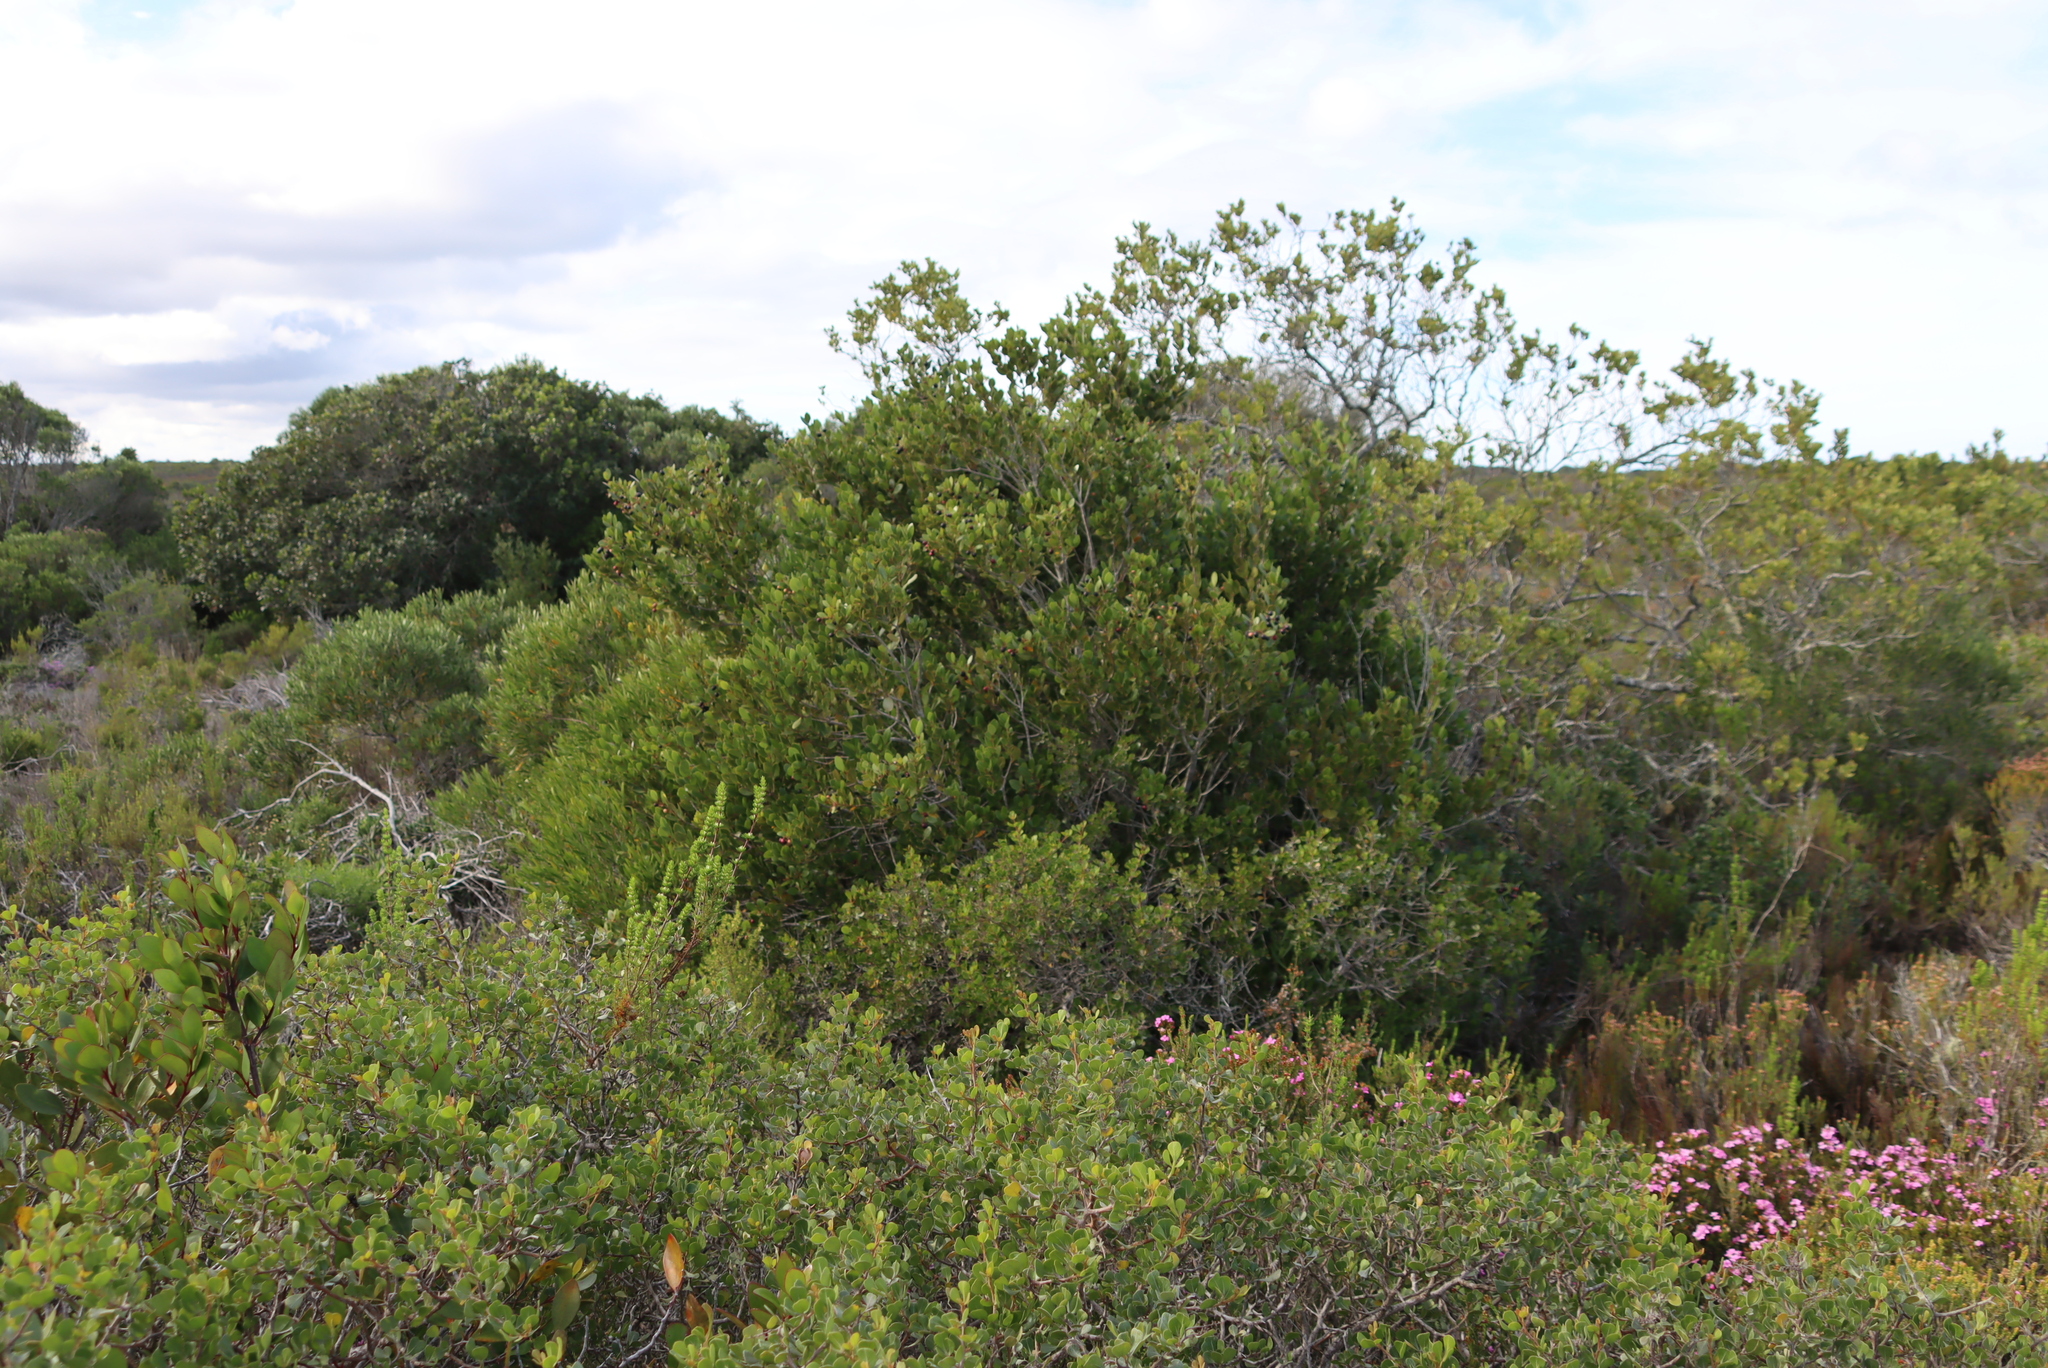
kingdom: Plantae
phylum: Tracheophyta
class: Magnoliopsida
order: Celastrales
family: Celastraceae
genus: Cassine
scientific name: Cassine peragua
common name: Cape saffron
